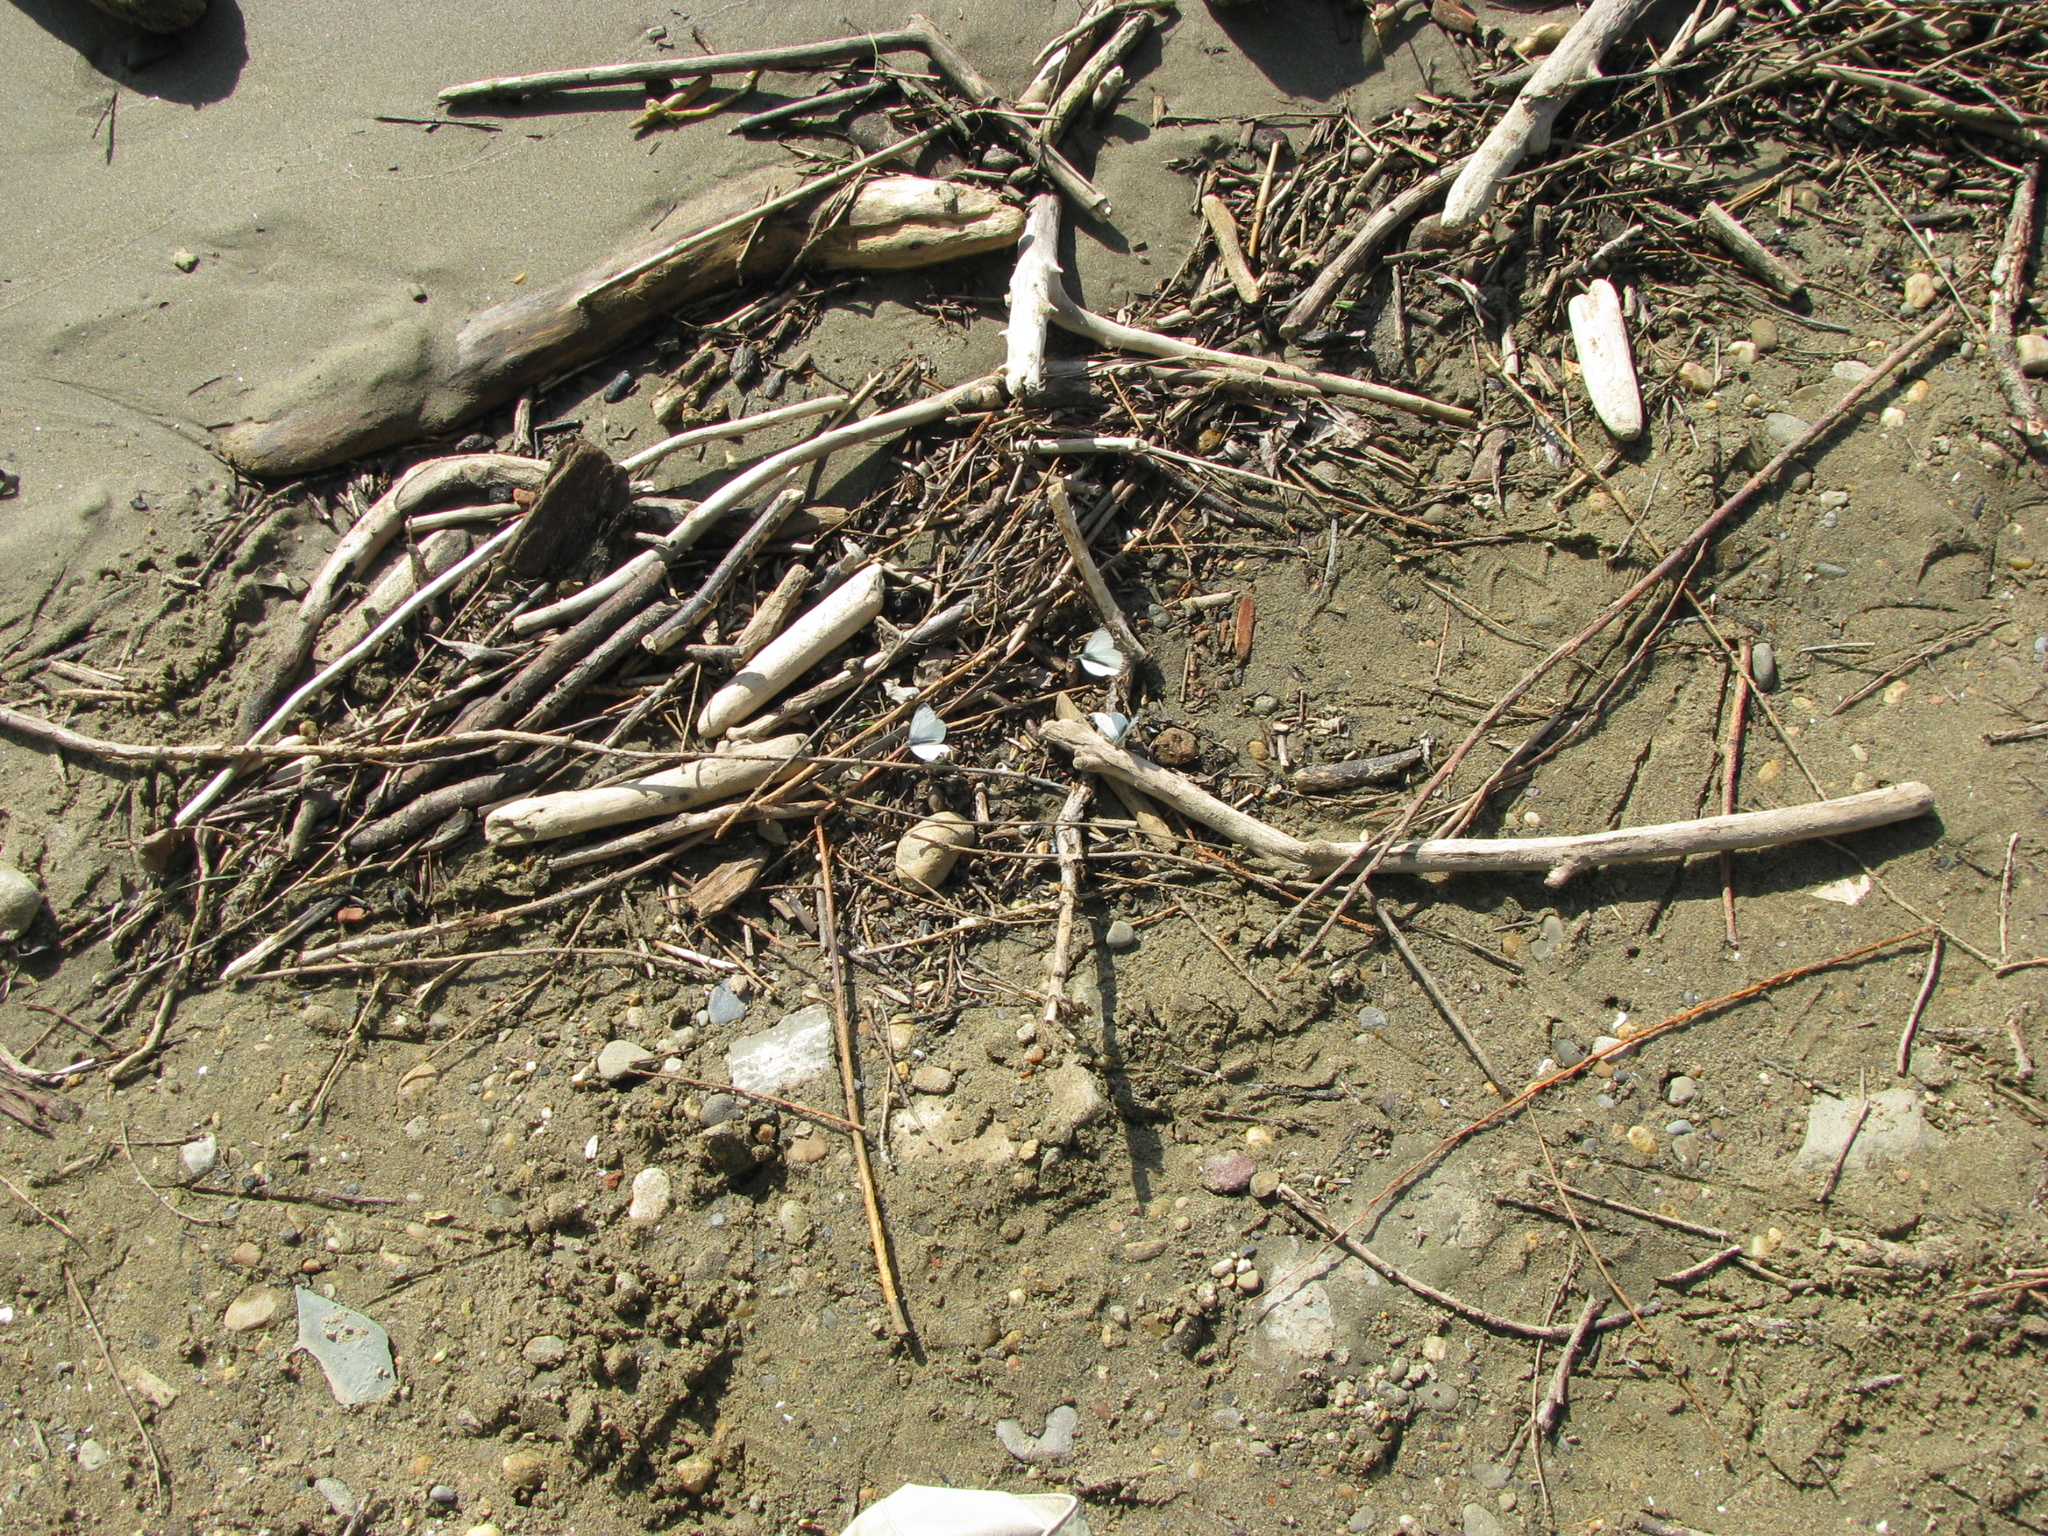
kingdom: Animalia
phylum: Arthropoda
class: Insecta
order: Lepidoptera
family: Pieridae
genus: Pieris
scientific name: Pieris napi
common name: Green-veined white
